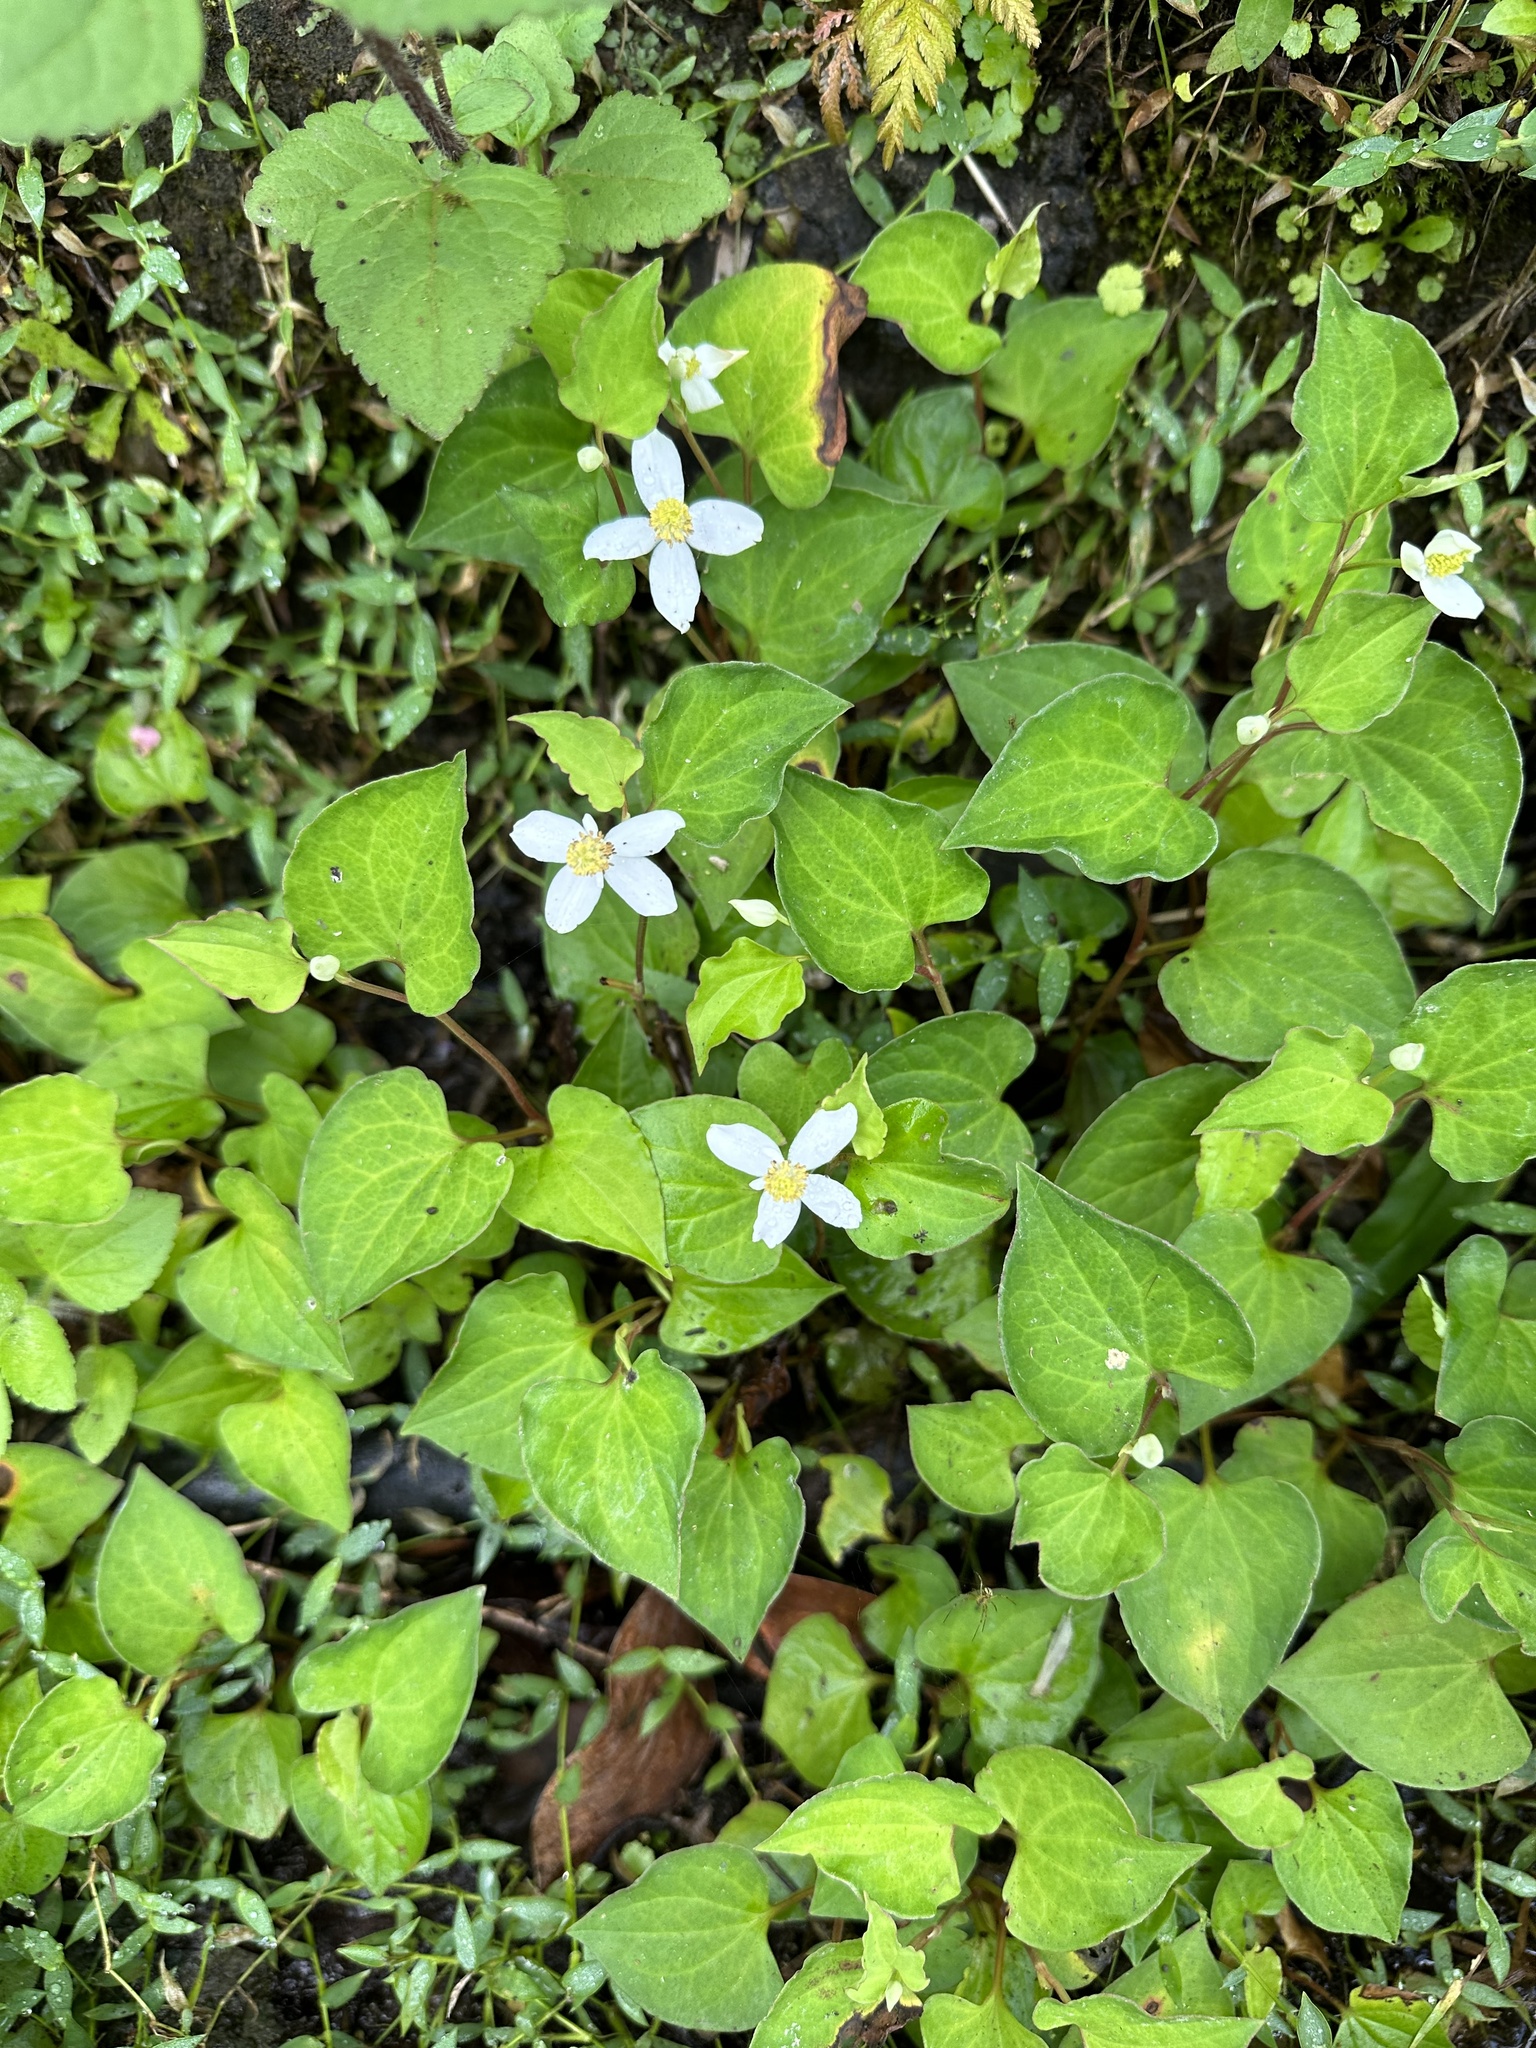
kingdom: Plantae
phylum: Tracheophyta
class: Magnoliopsida
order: Piperales
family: Saururaceae
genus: Houttuynia
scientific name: Houttuynia cordata
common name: Chameleon
